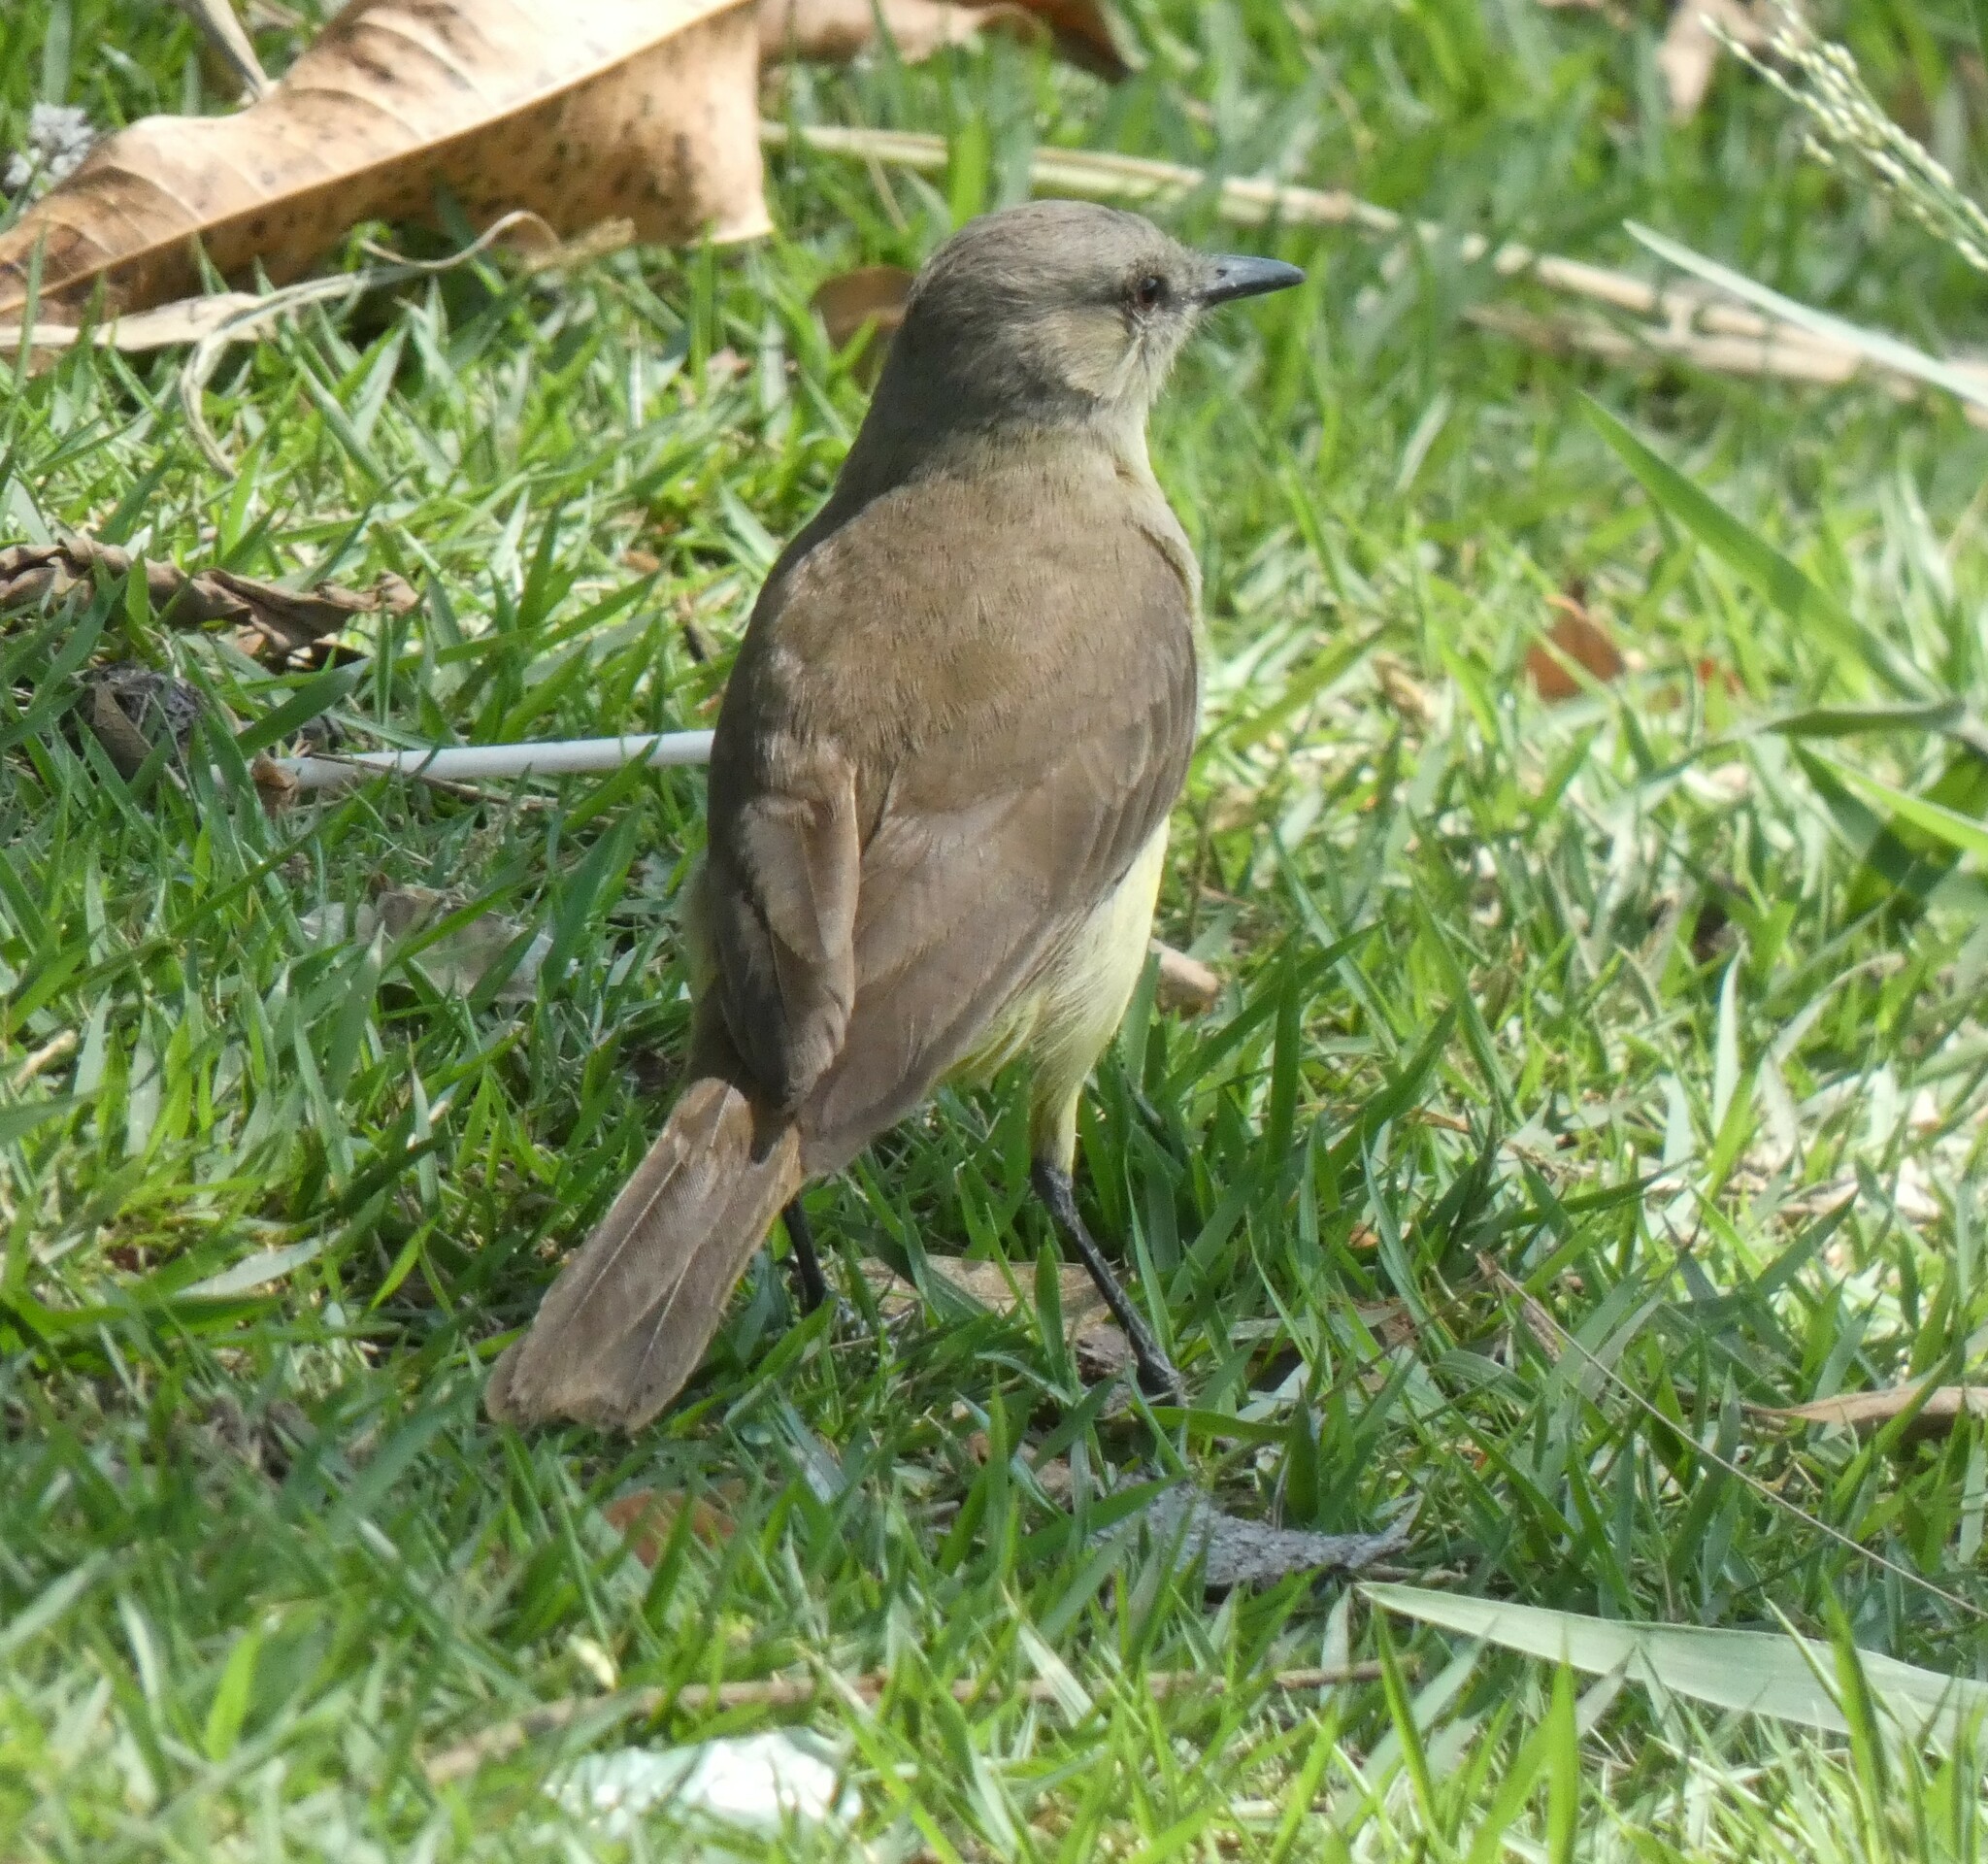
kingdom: Animalia
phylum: Chordata
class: Aves
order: Passeriformes
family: Tyrannidae
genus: Machetornis
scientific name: Machetornis rixosa
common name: Cattle tyrant
